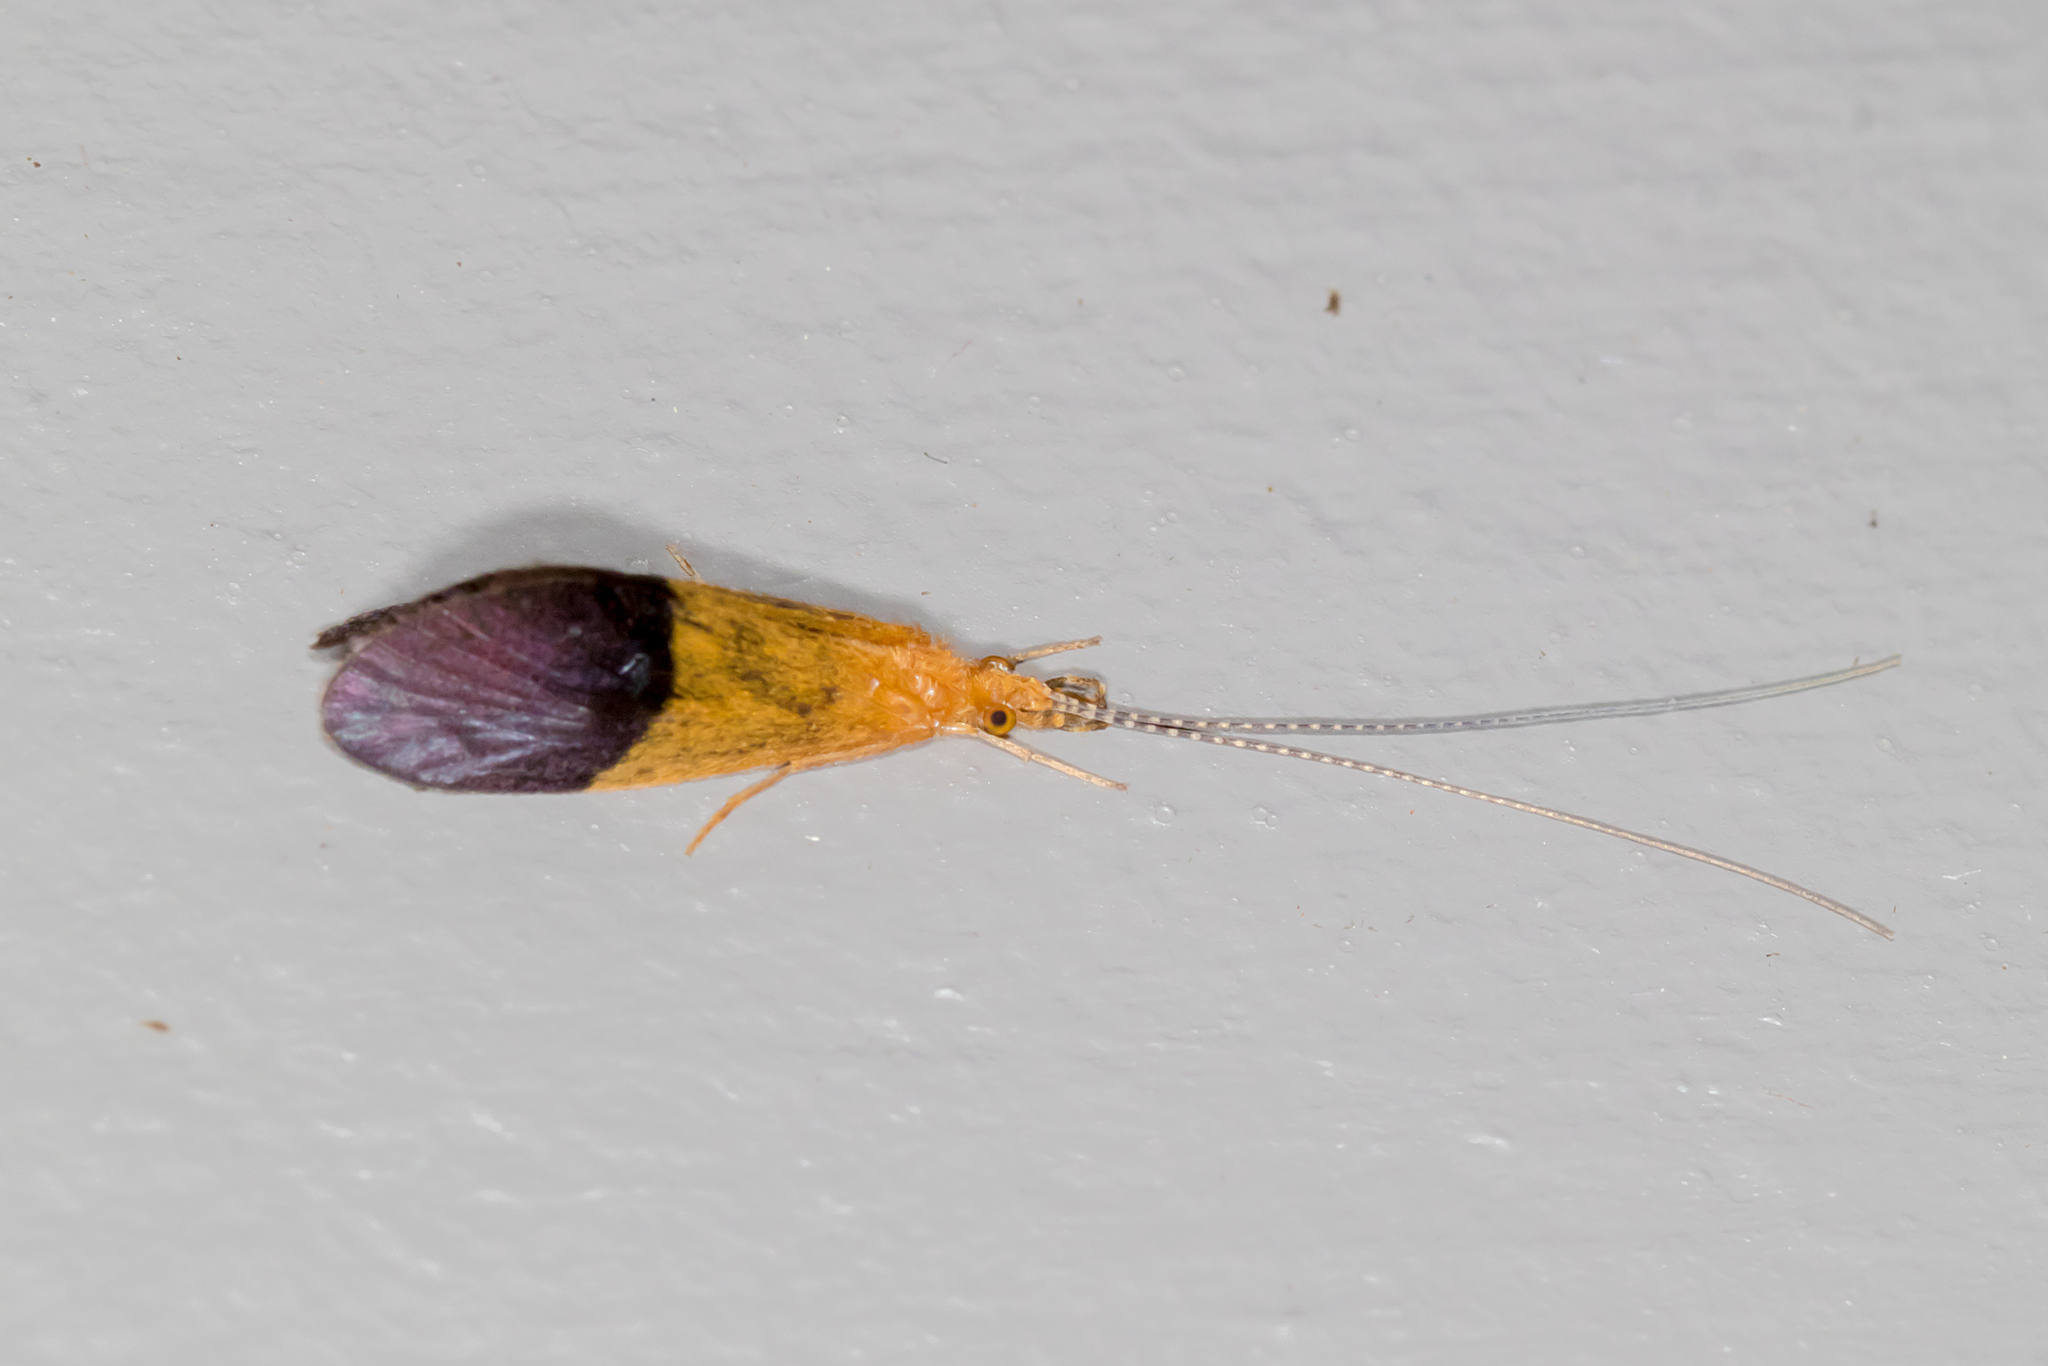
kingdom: Animalia
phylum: Arthropoda
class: Insecta
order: Trichoptera
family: Calamoceratidae
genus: Anisocentropus
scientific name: Anisocentropus bicoloratus
